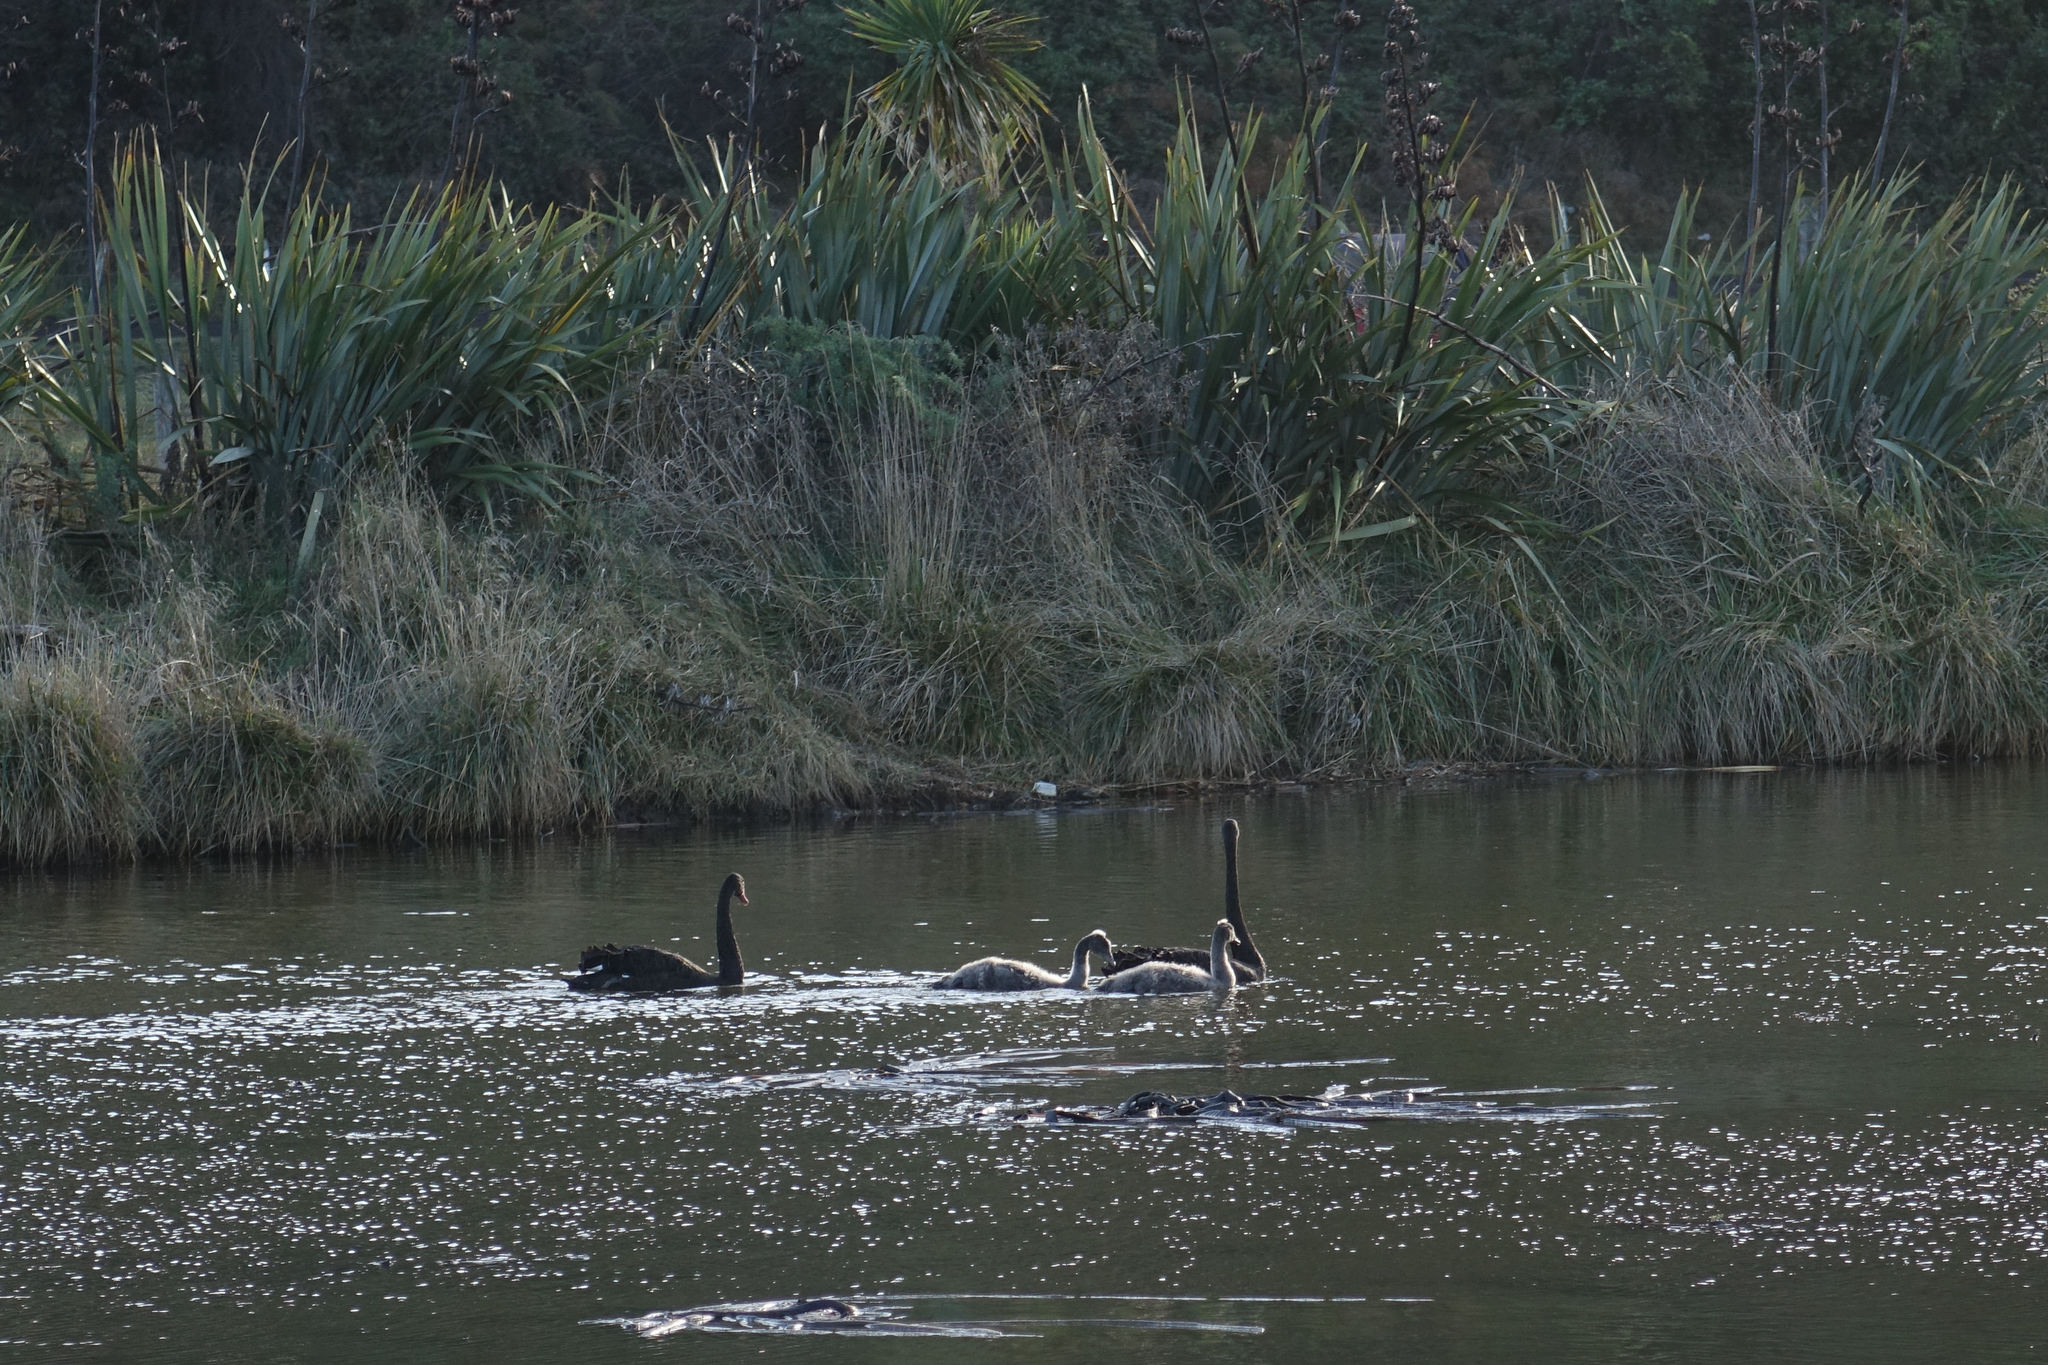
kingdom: Animalia
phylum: Chordata
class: Aves
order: Anseriformes
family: Anatidae
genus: Cygnus
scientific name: Cygnus atratus
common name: Black swan
